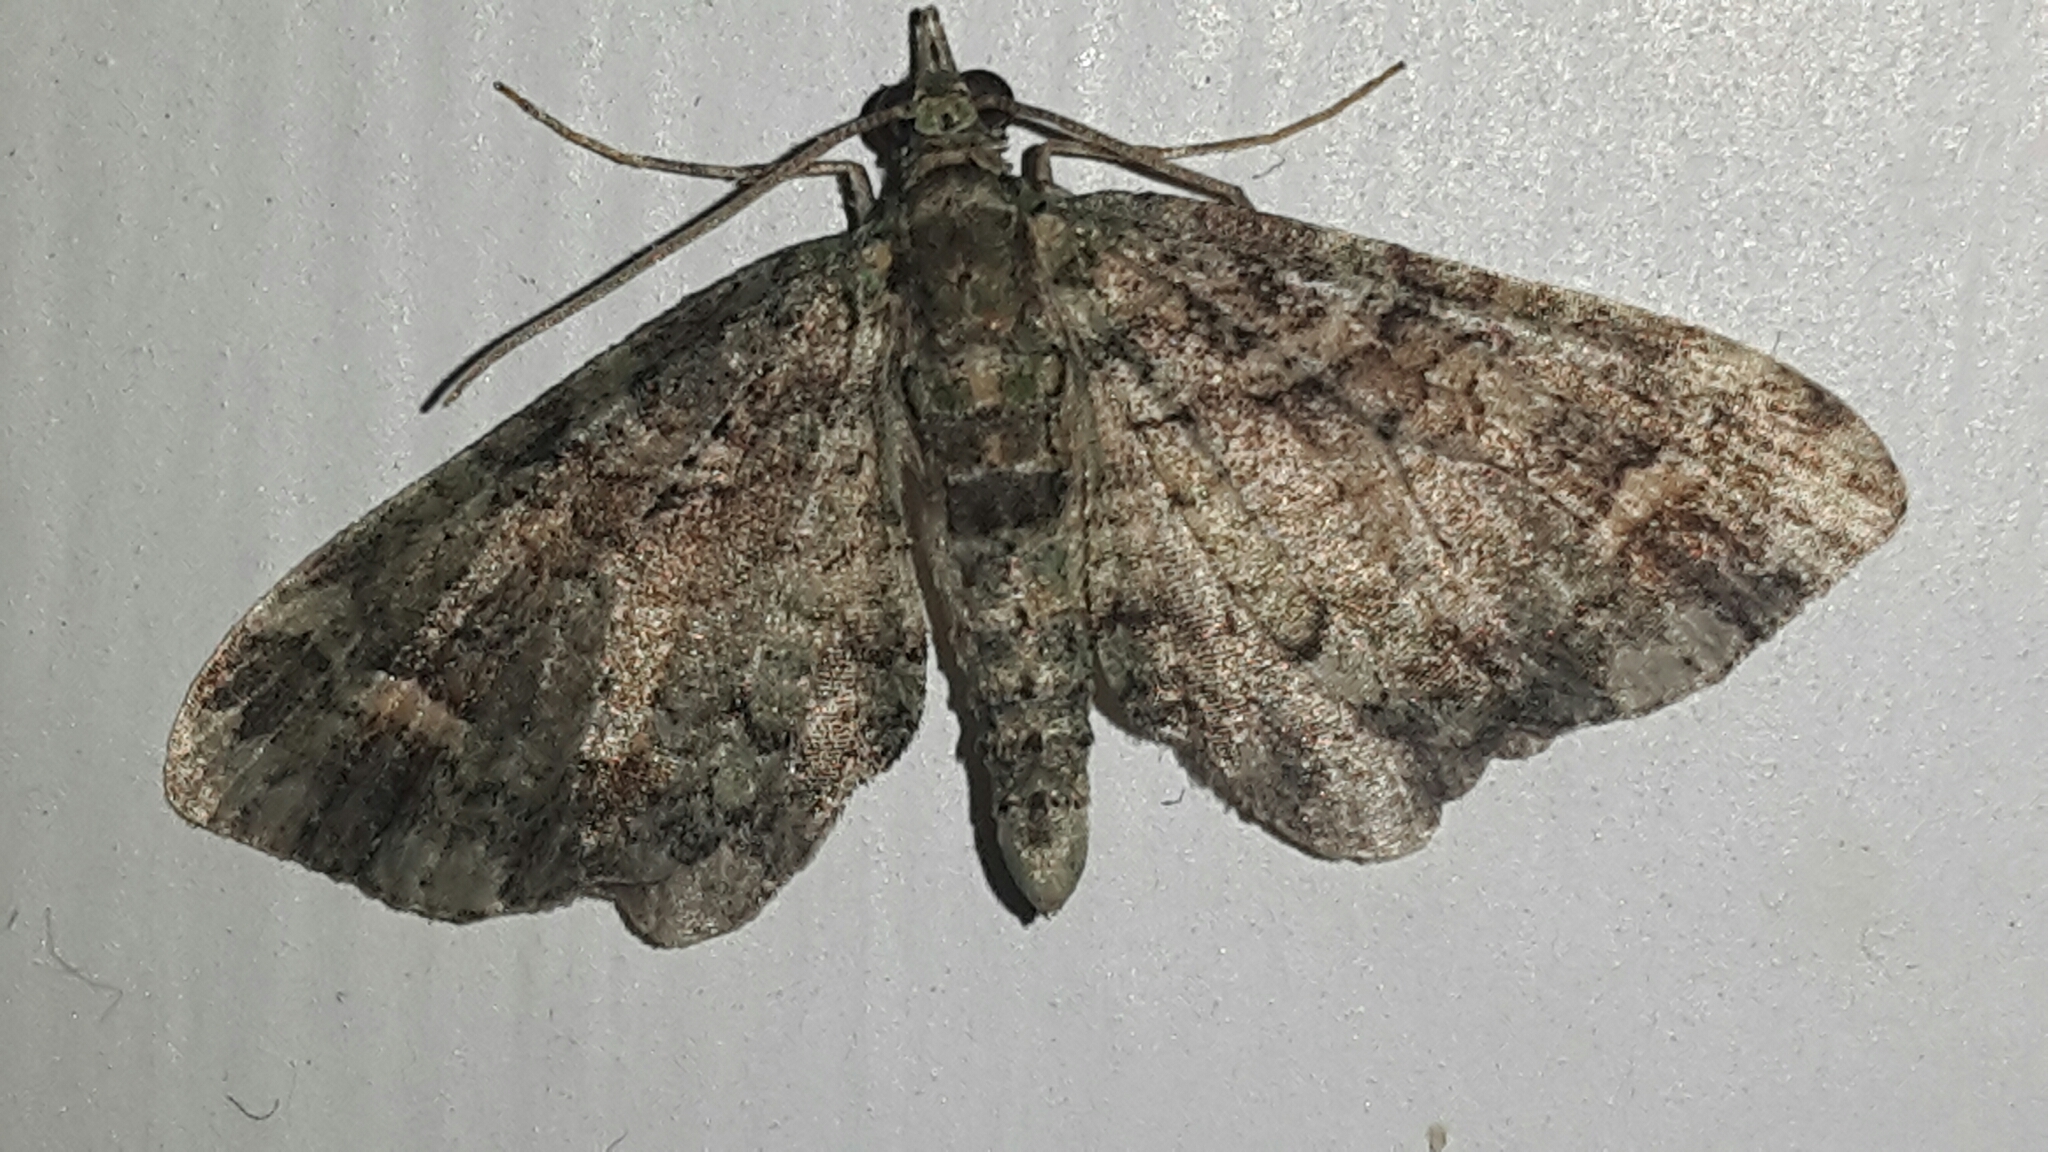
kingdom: Animalia
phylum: Arthropoda
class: Insecta
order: Lepidoptera
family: Geometridae
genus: Idaea
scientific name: Idaea mutanda
